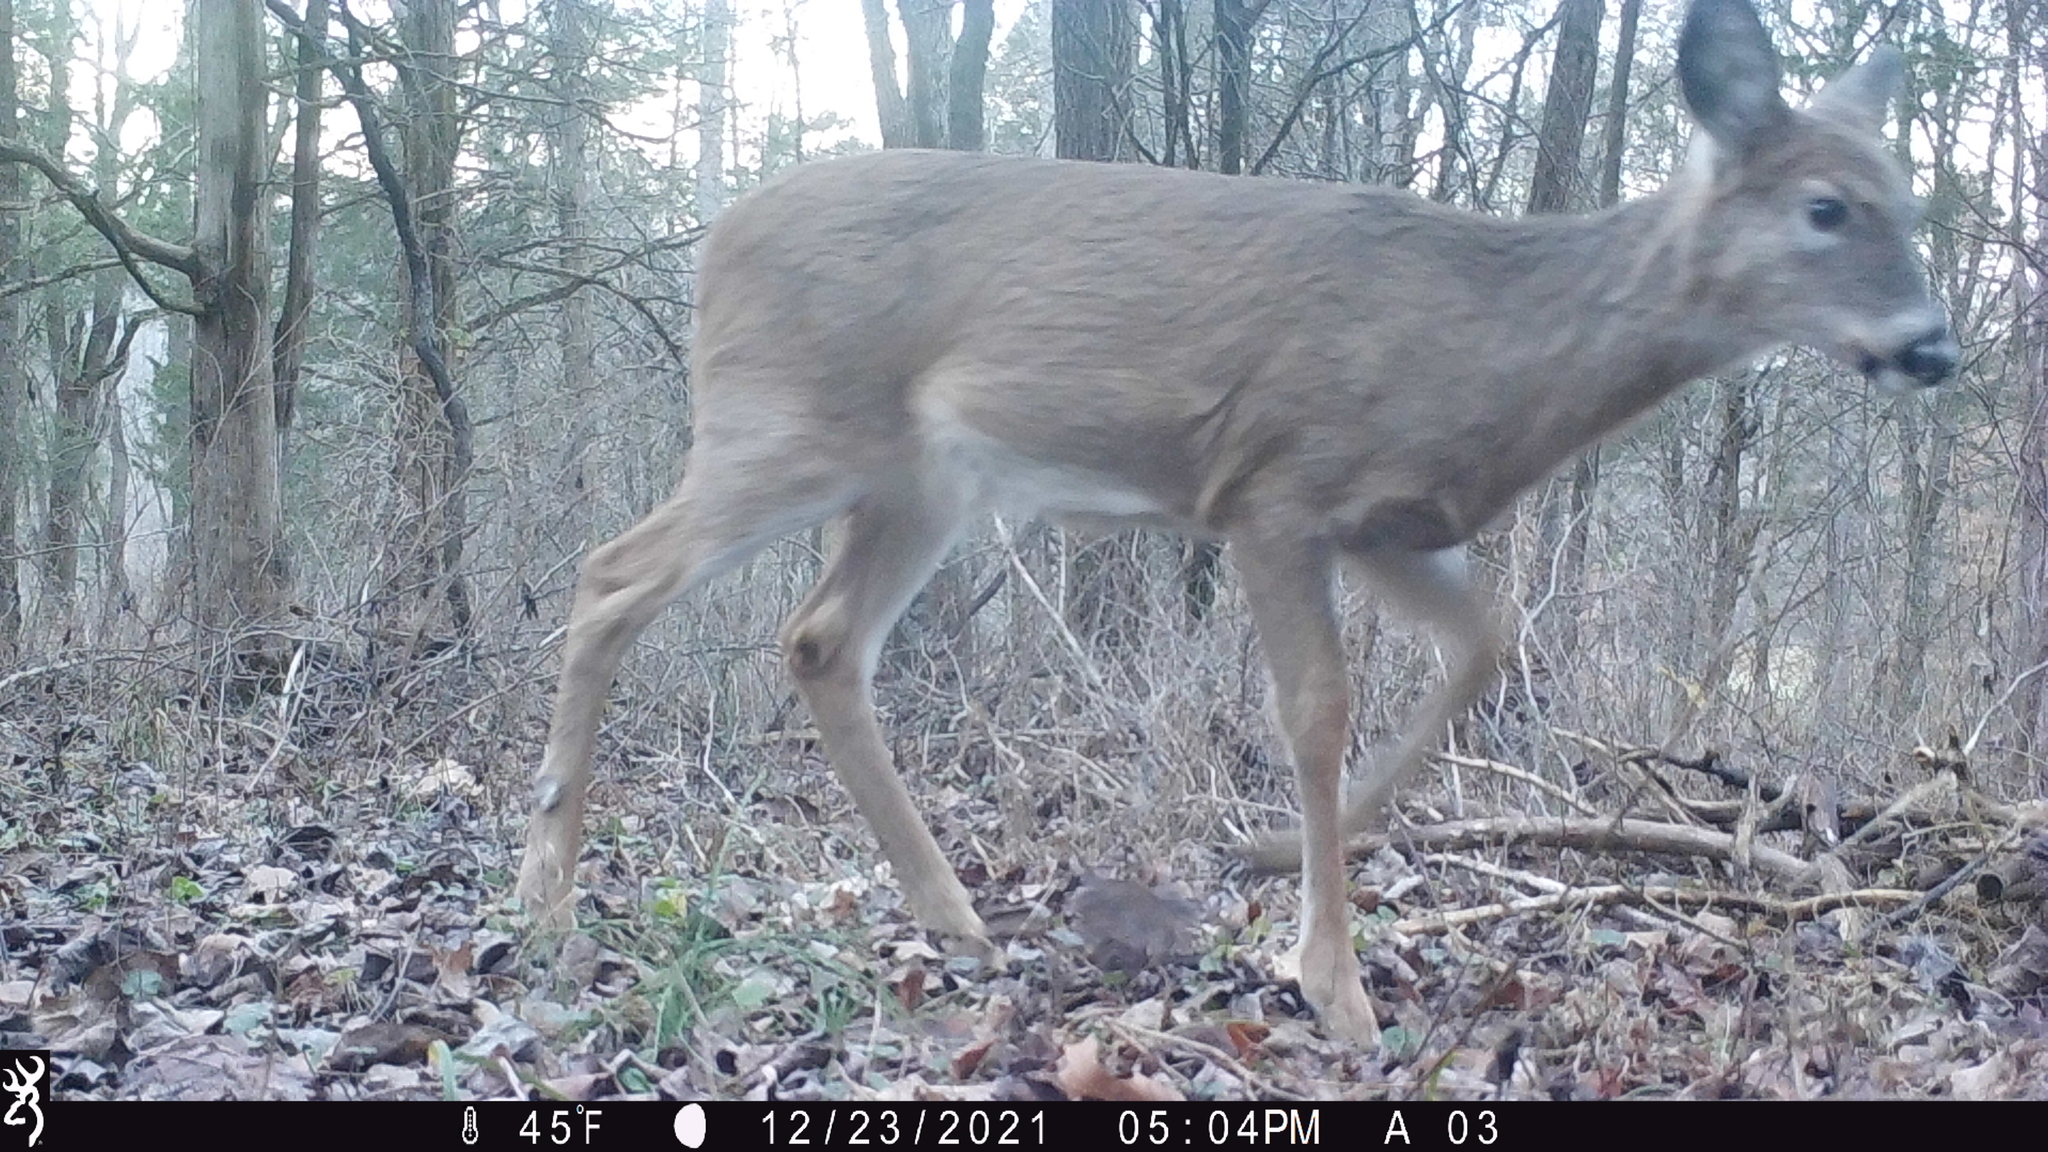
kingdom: Animalia
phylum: Chordata
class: Mammalia
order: Artiodactyla
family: Cervidae
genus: Odocoileus
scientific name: Odocoileus virginianus
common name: White-tailed deer
